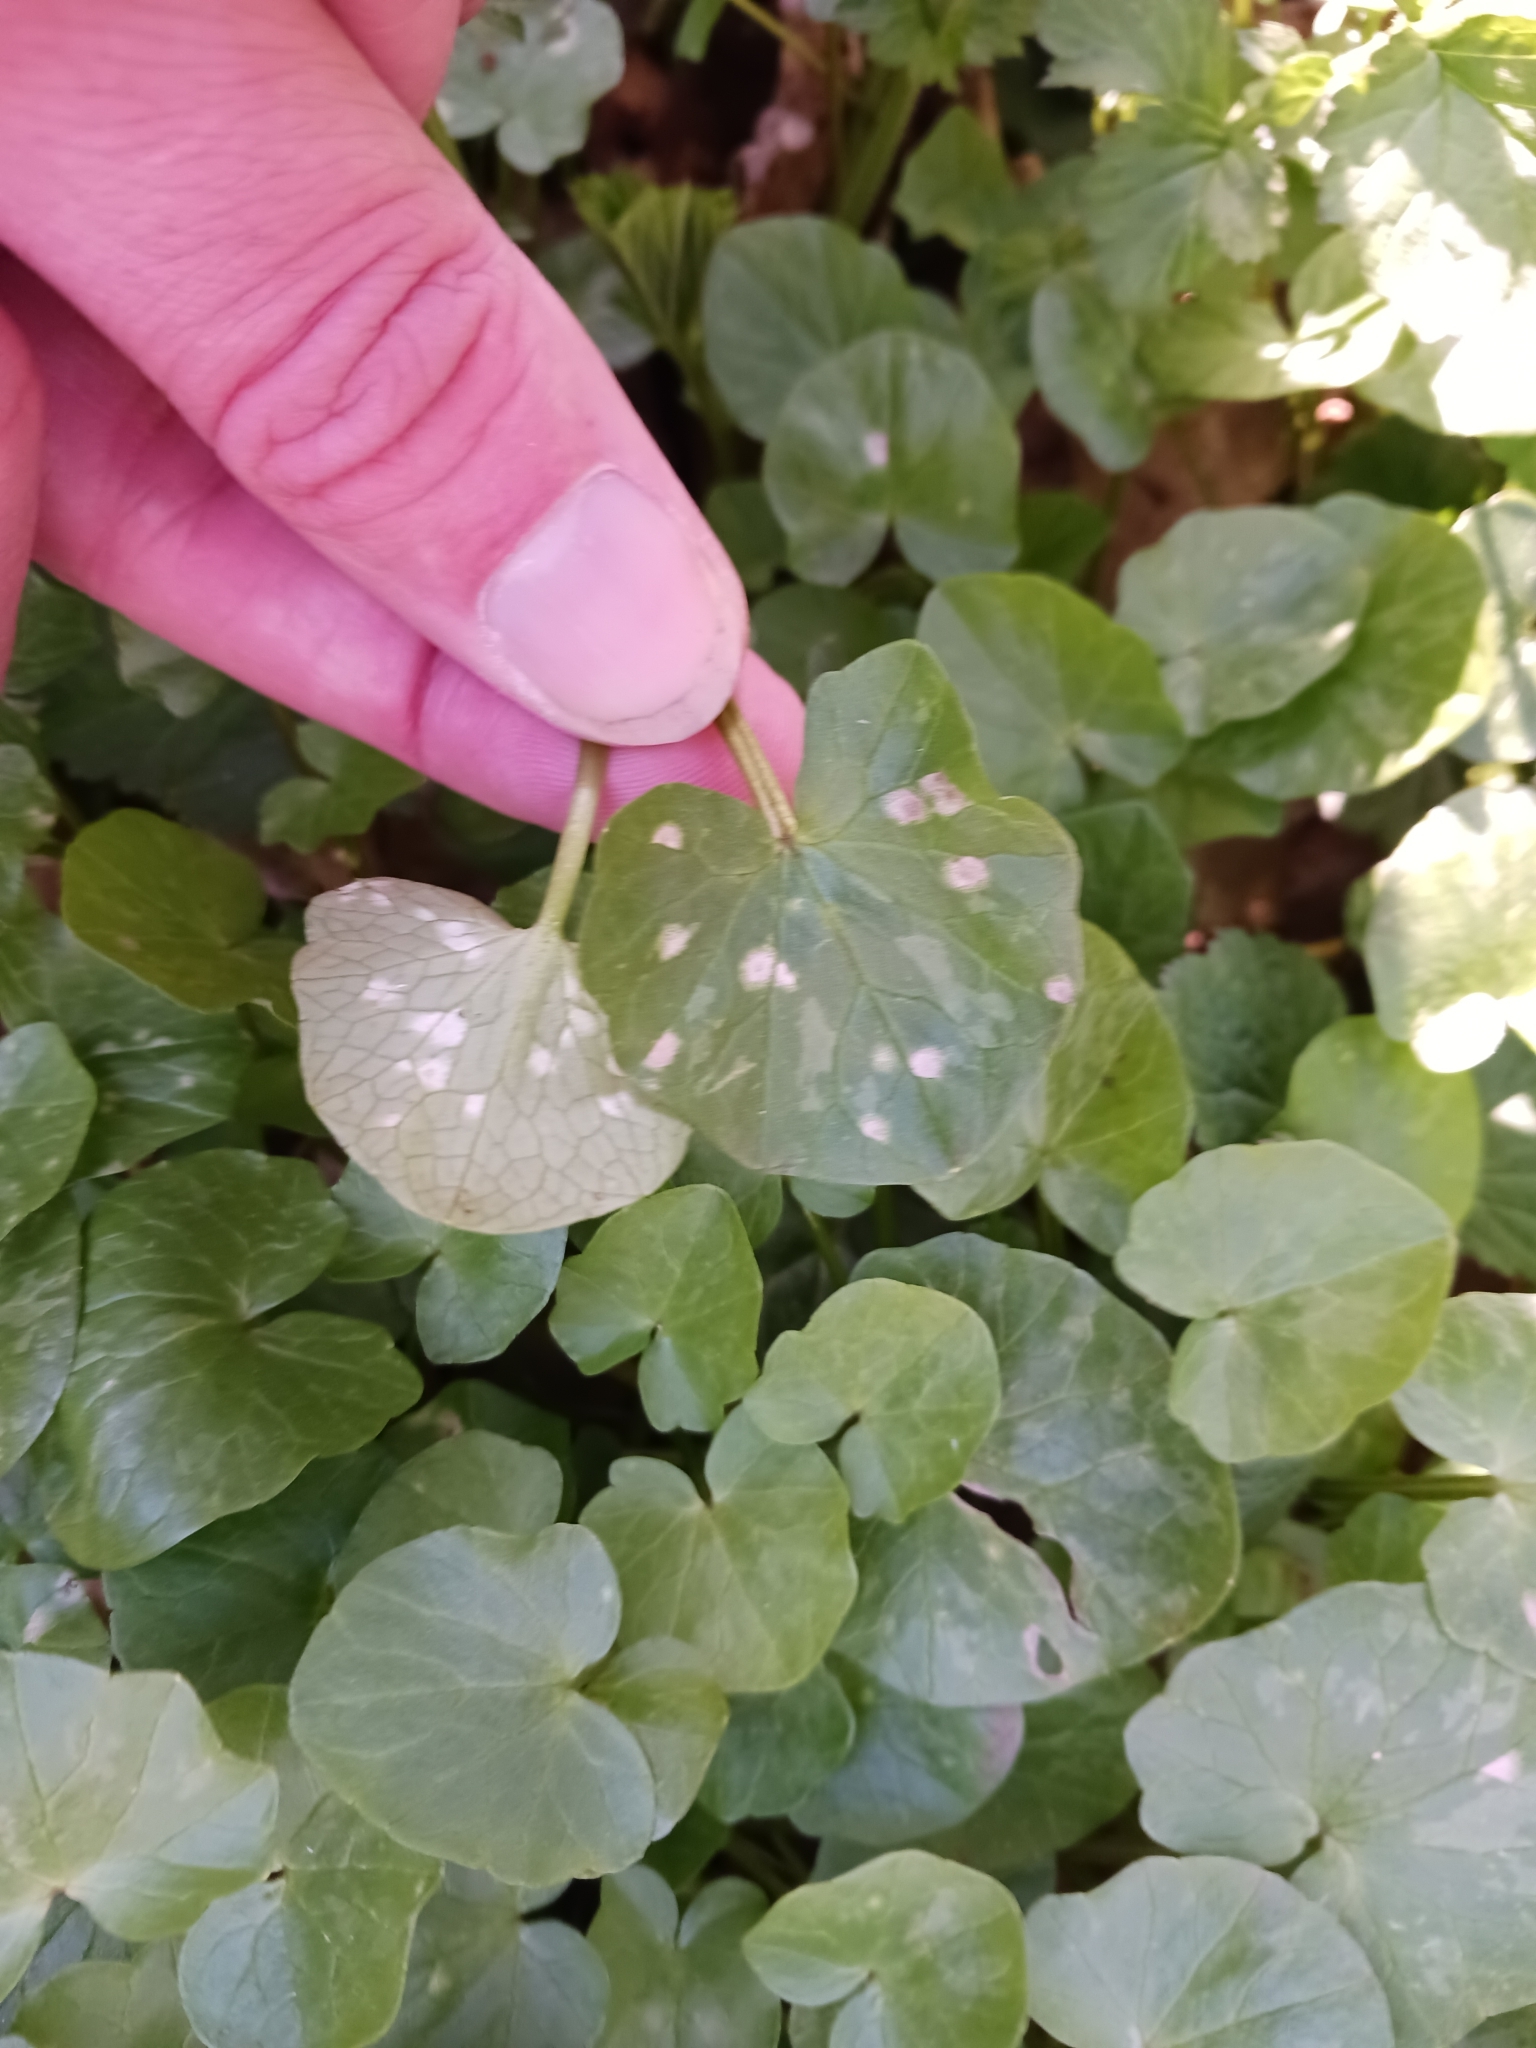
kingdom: Fungi
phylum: Basidiomycota
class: Exobasidiomycetes
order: Entylomatales
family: Entylomataceae
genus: Entyloma
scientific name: Entyloma ficariae
